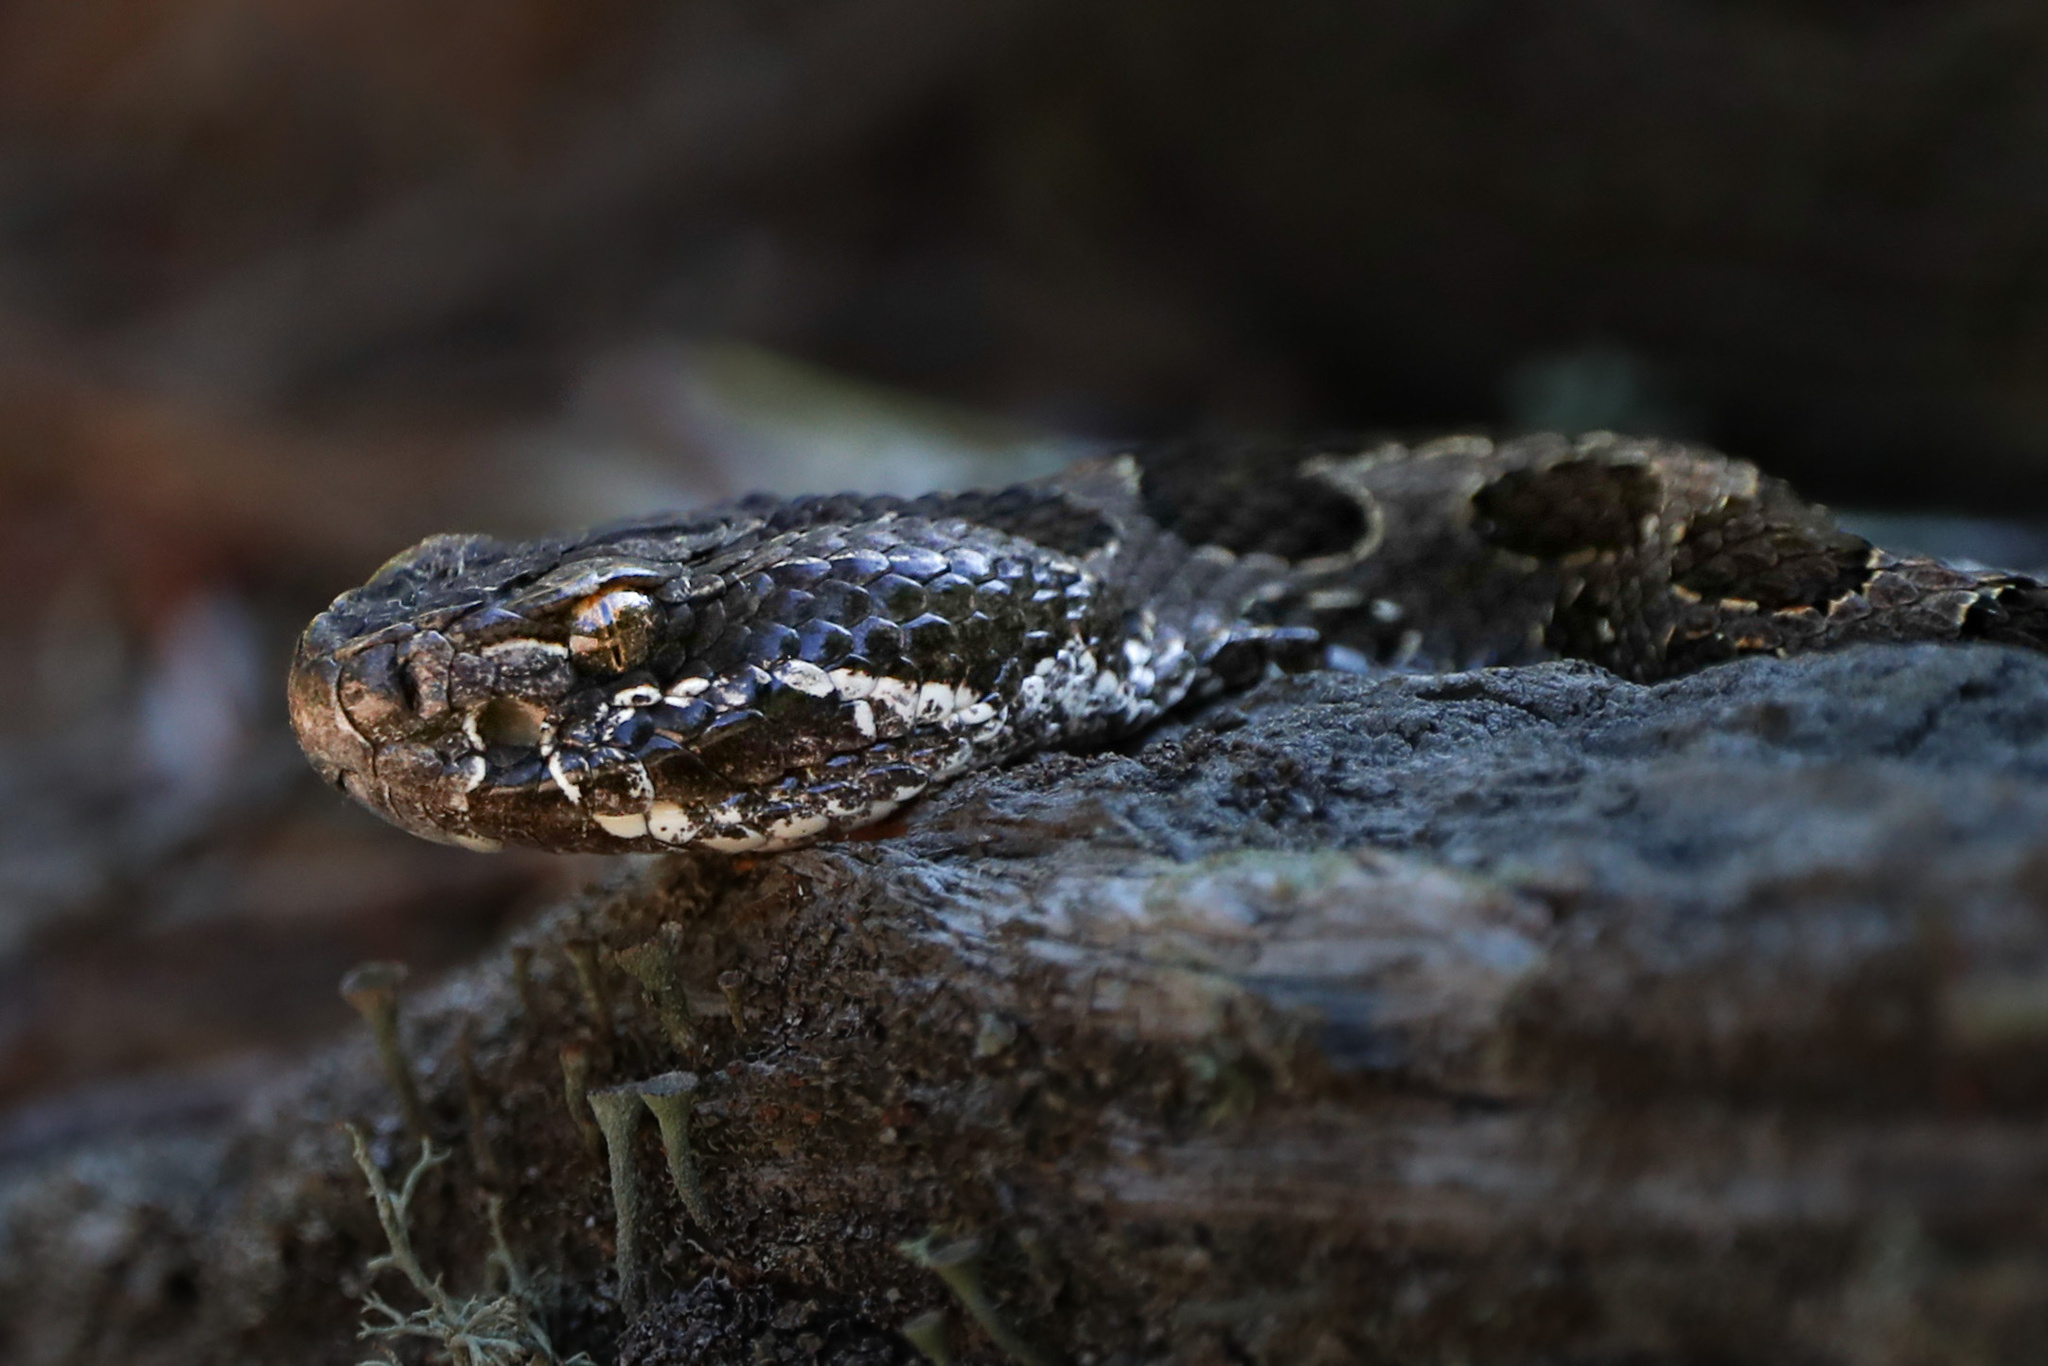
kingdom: Animalia
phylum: Chordata
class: Squamata
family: Viperidae
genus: Sistrurus
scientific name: Sistrurus catenatus
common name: Massasauga
